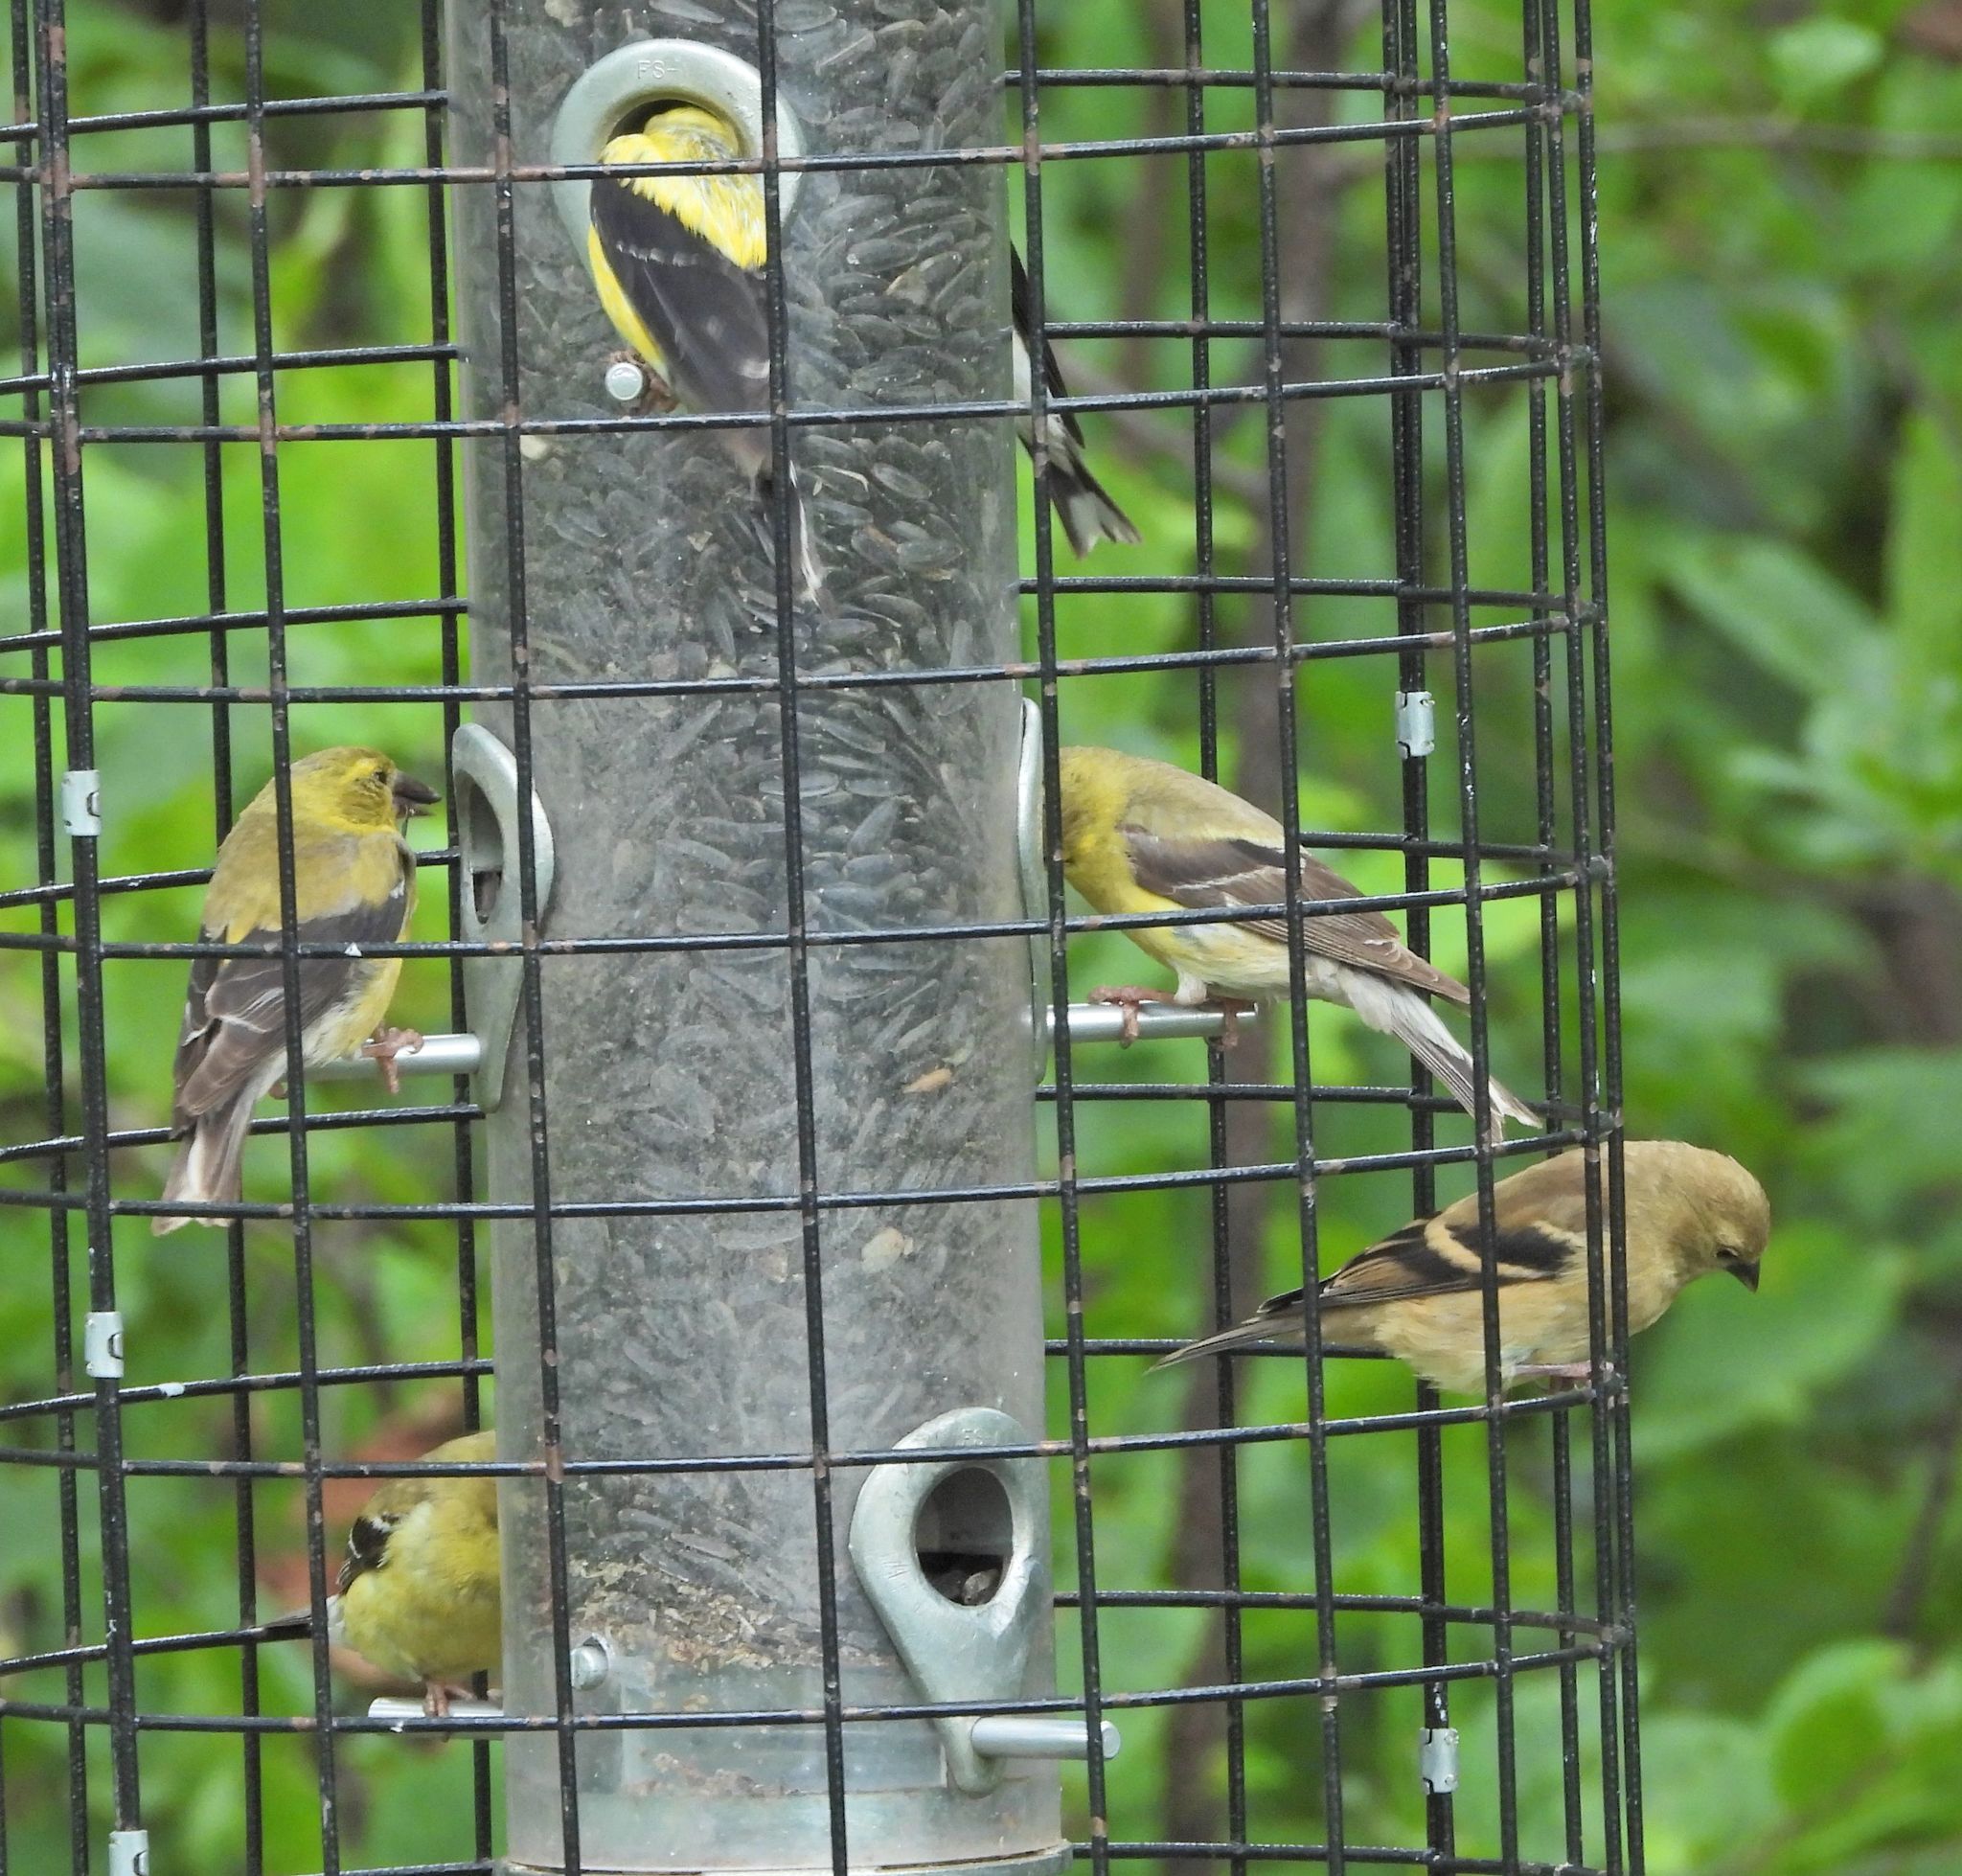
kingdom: Animalia
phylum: Chordata
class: Aves
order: Passeriformes
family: Fringillidae
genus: Spinus
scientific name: Spinus tristis
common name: American goldfinch
